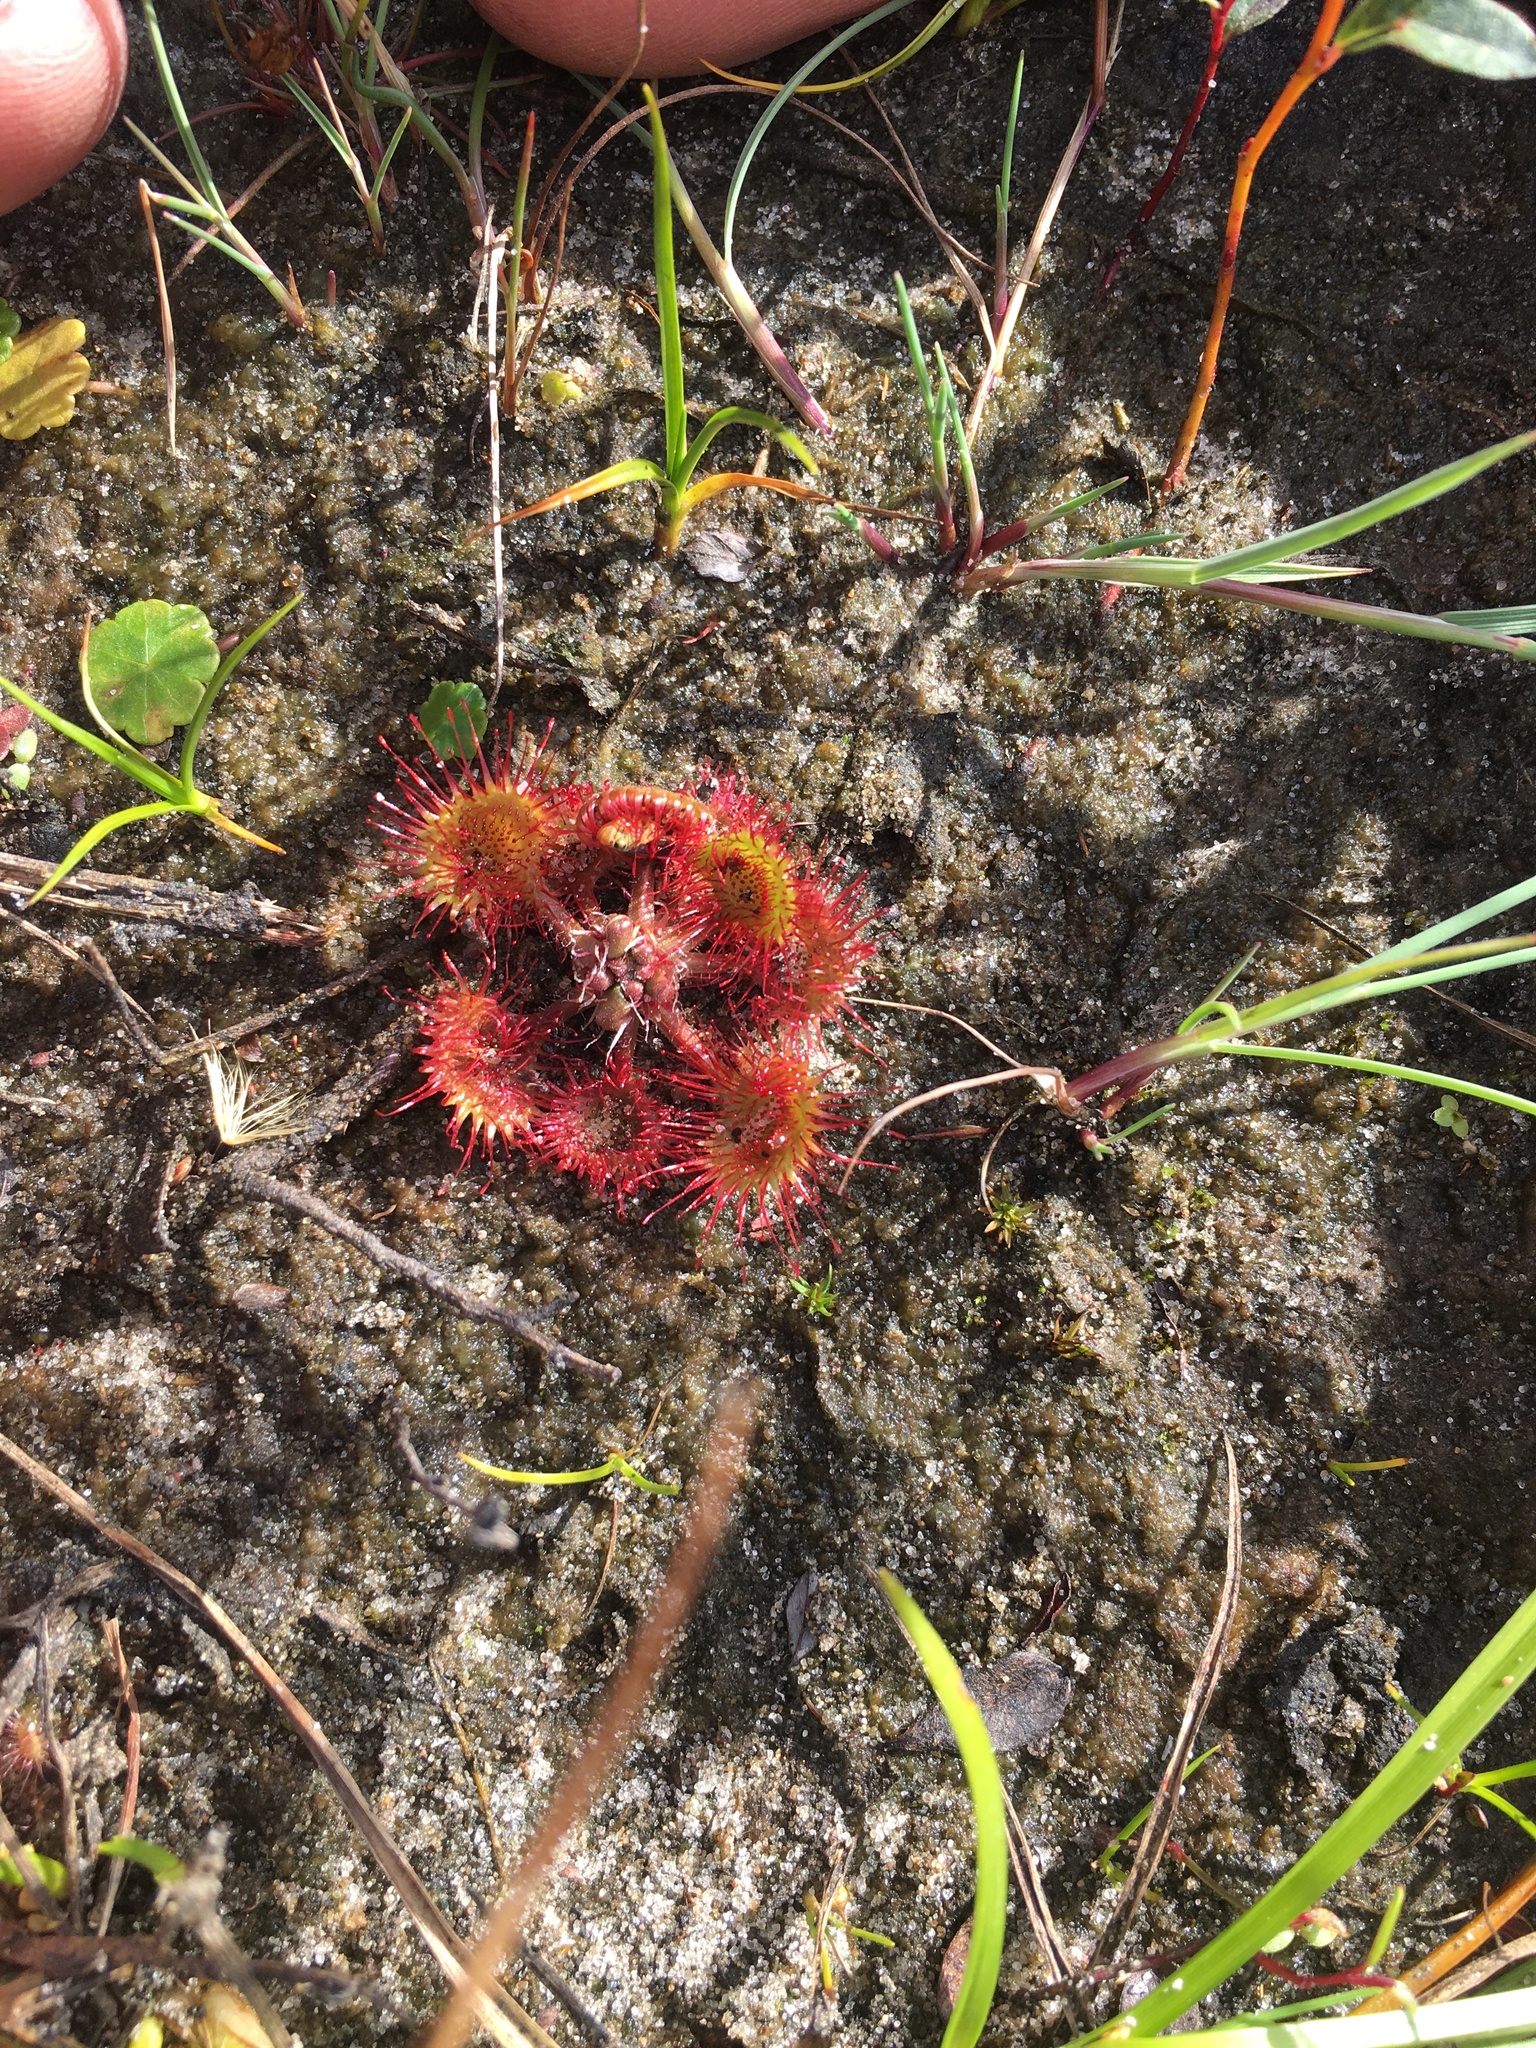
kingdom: Plantae
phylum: Tracheophyta
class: Magnoliopsida
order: Caryophyllales
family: Droseraceae
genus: Drosera
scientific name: Drosera rotundifolia
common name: Round-leaved sundew
